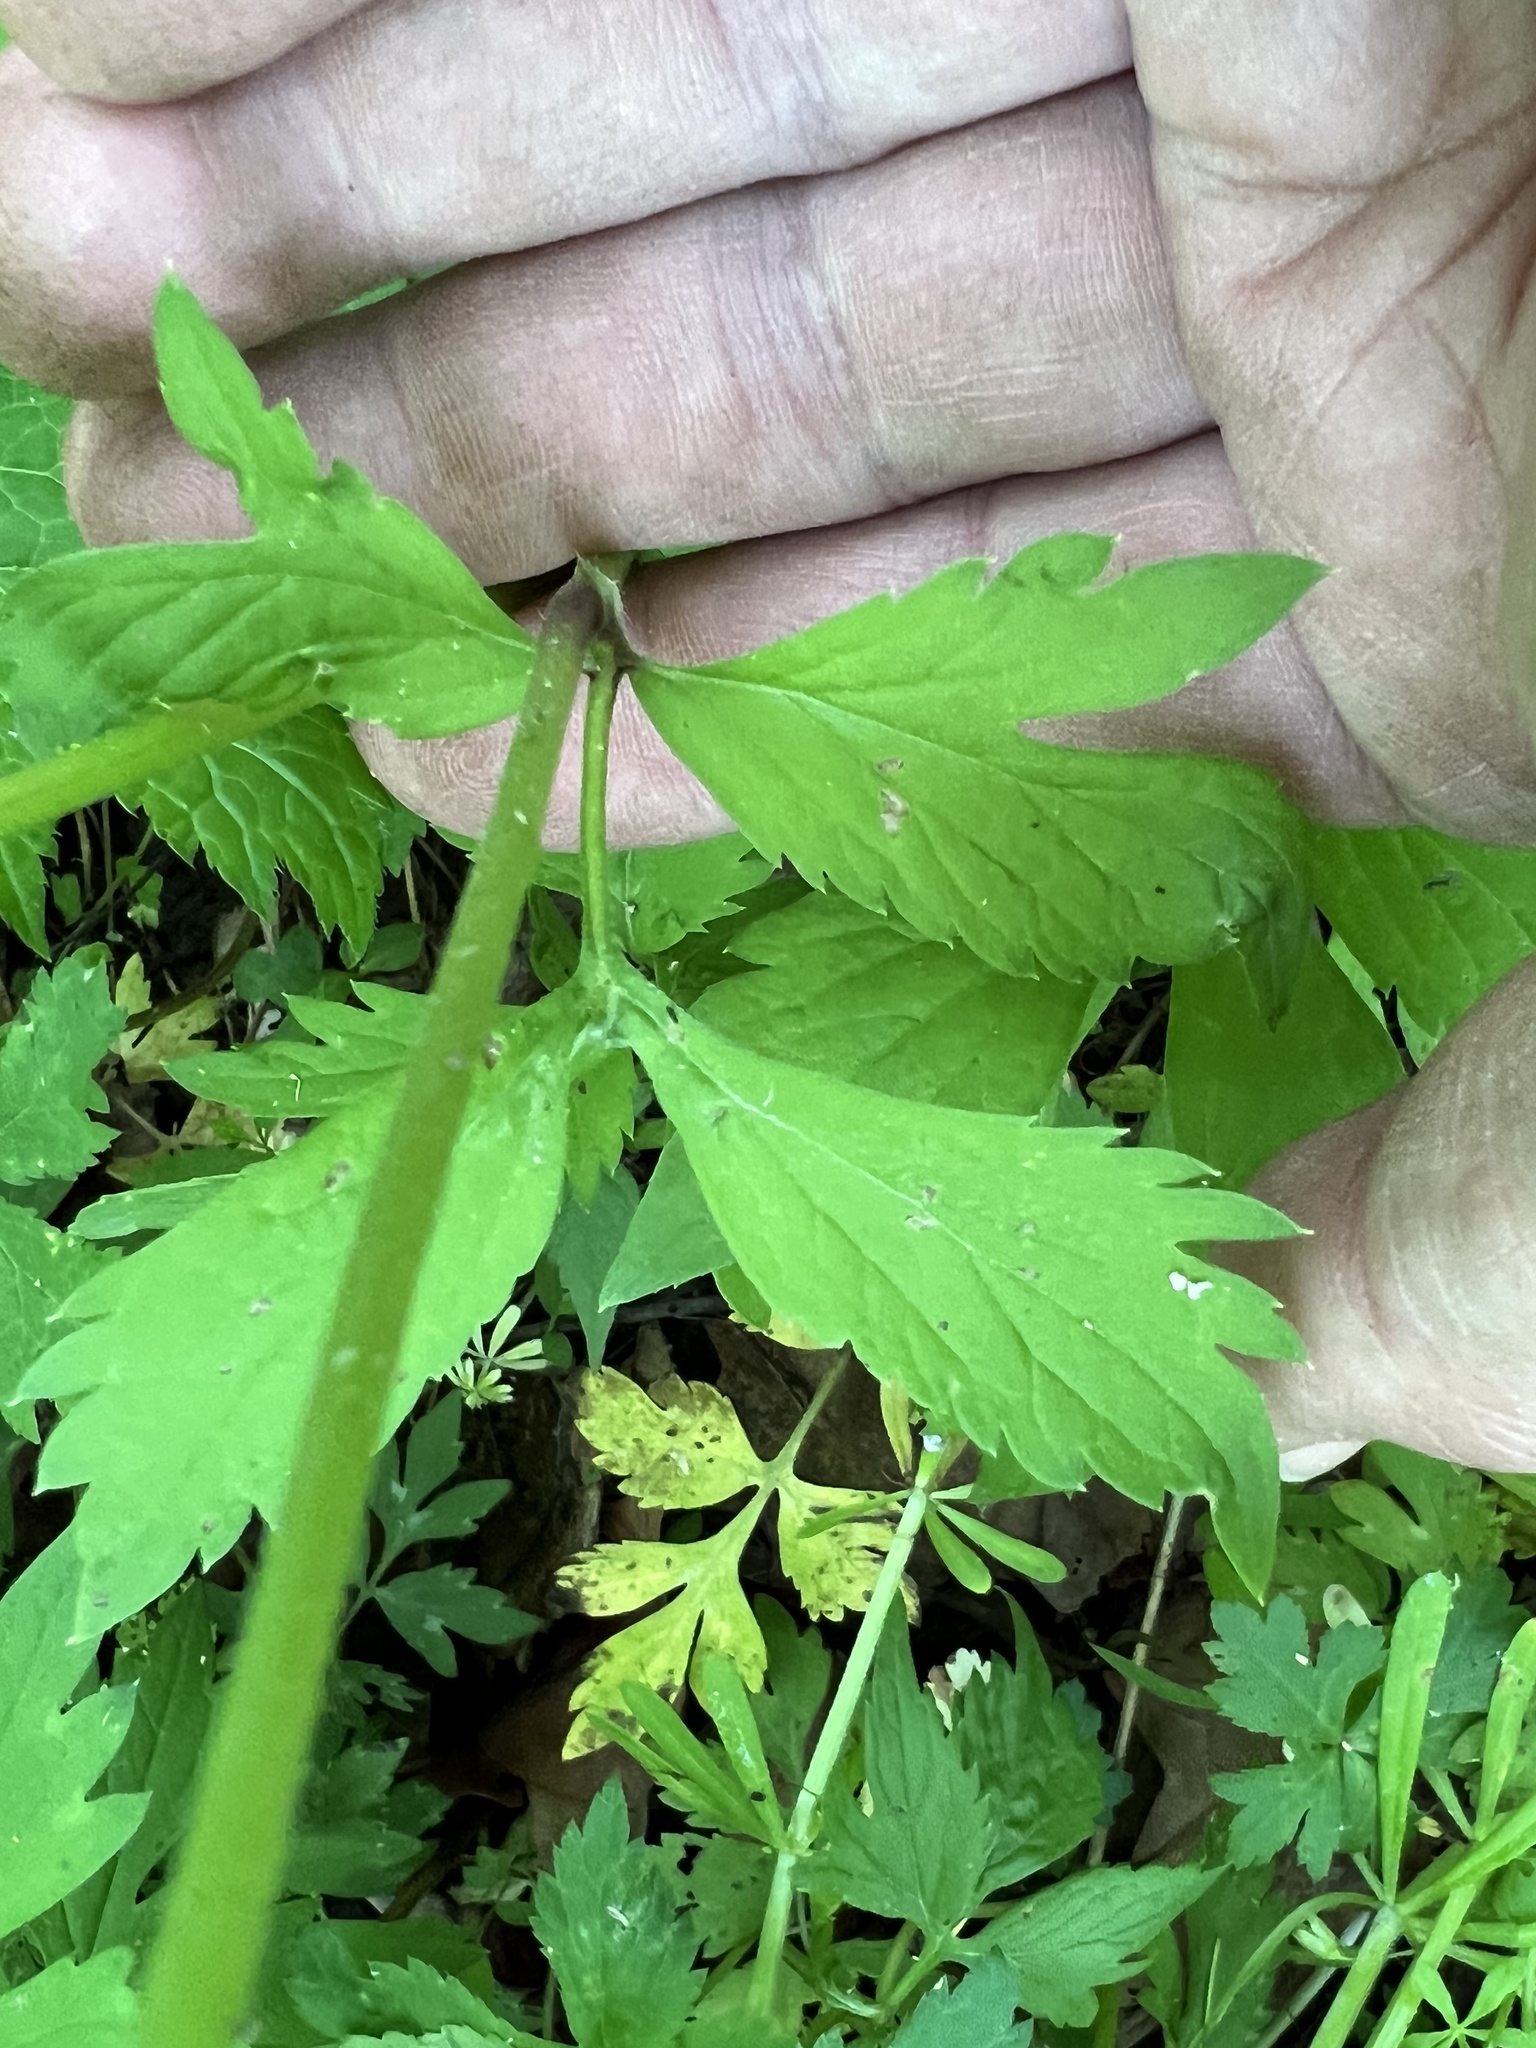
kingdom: Plantae
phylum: Tracheophyta
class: Magnoliopsida
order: Boraginales
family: Hydrophyllaceae
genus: Hydrophyllum
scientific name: Hydrophyllum virginianum
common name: Virginia waterleaf
